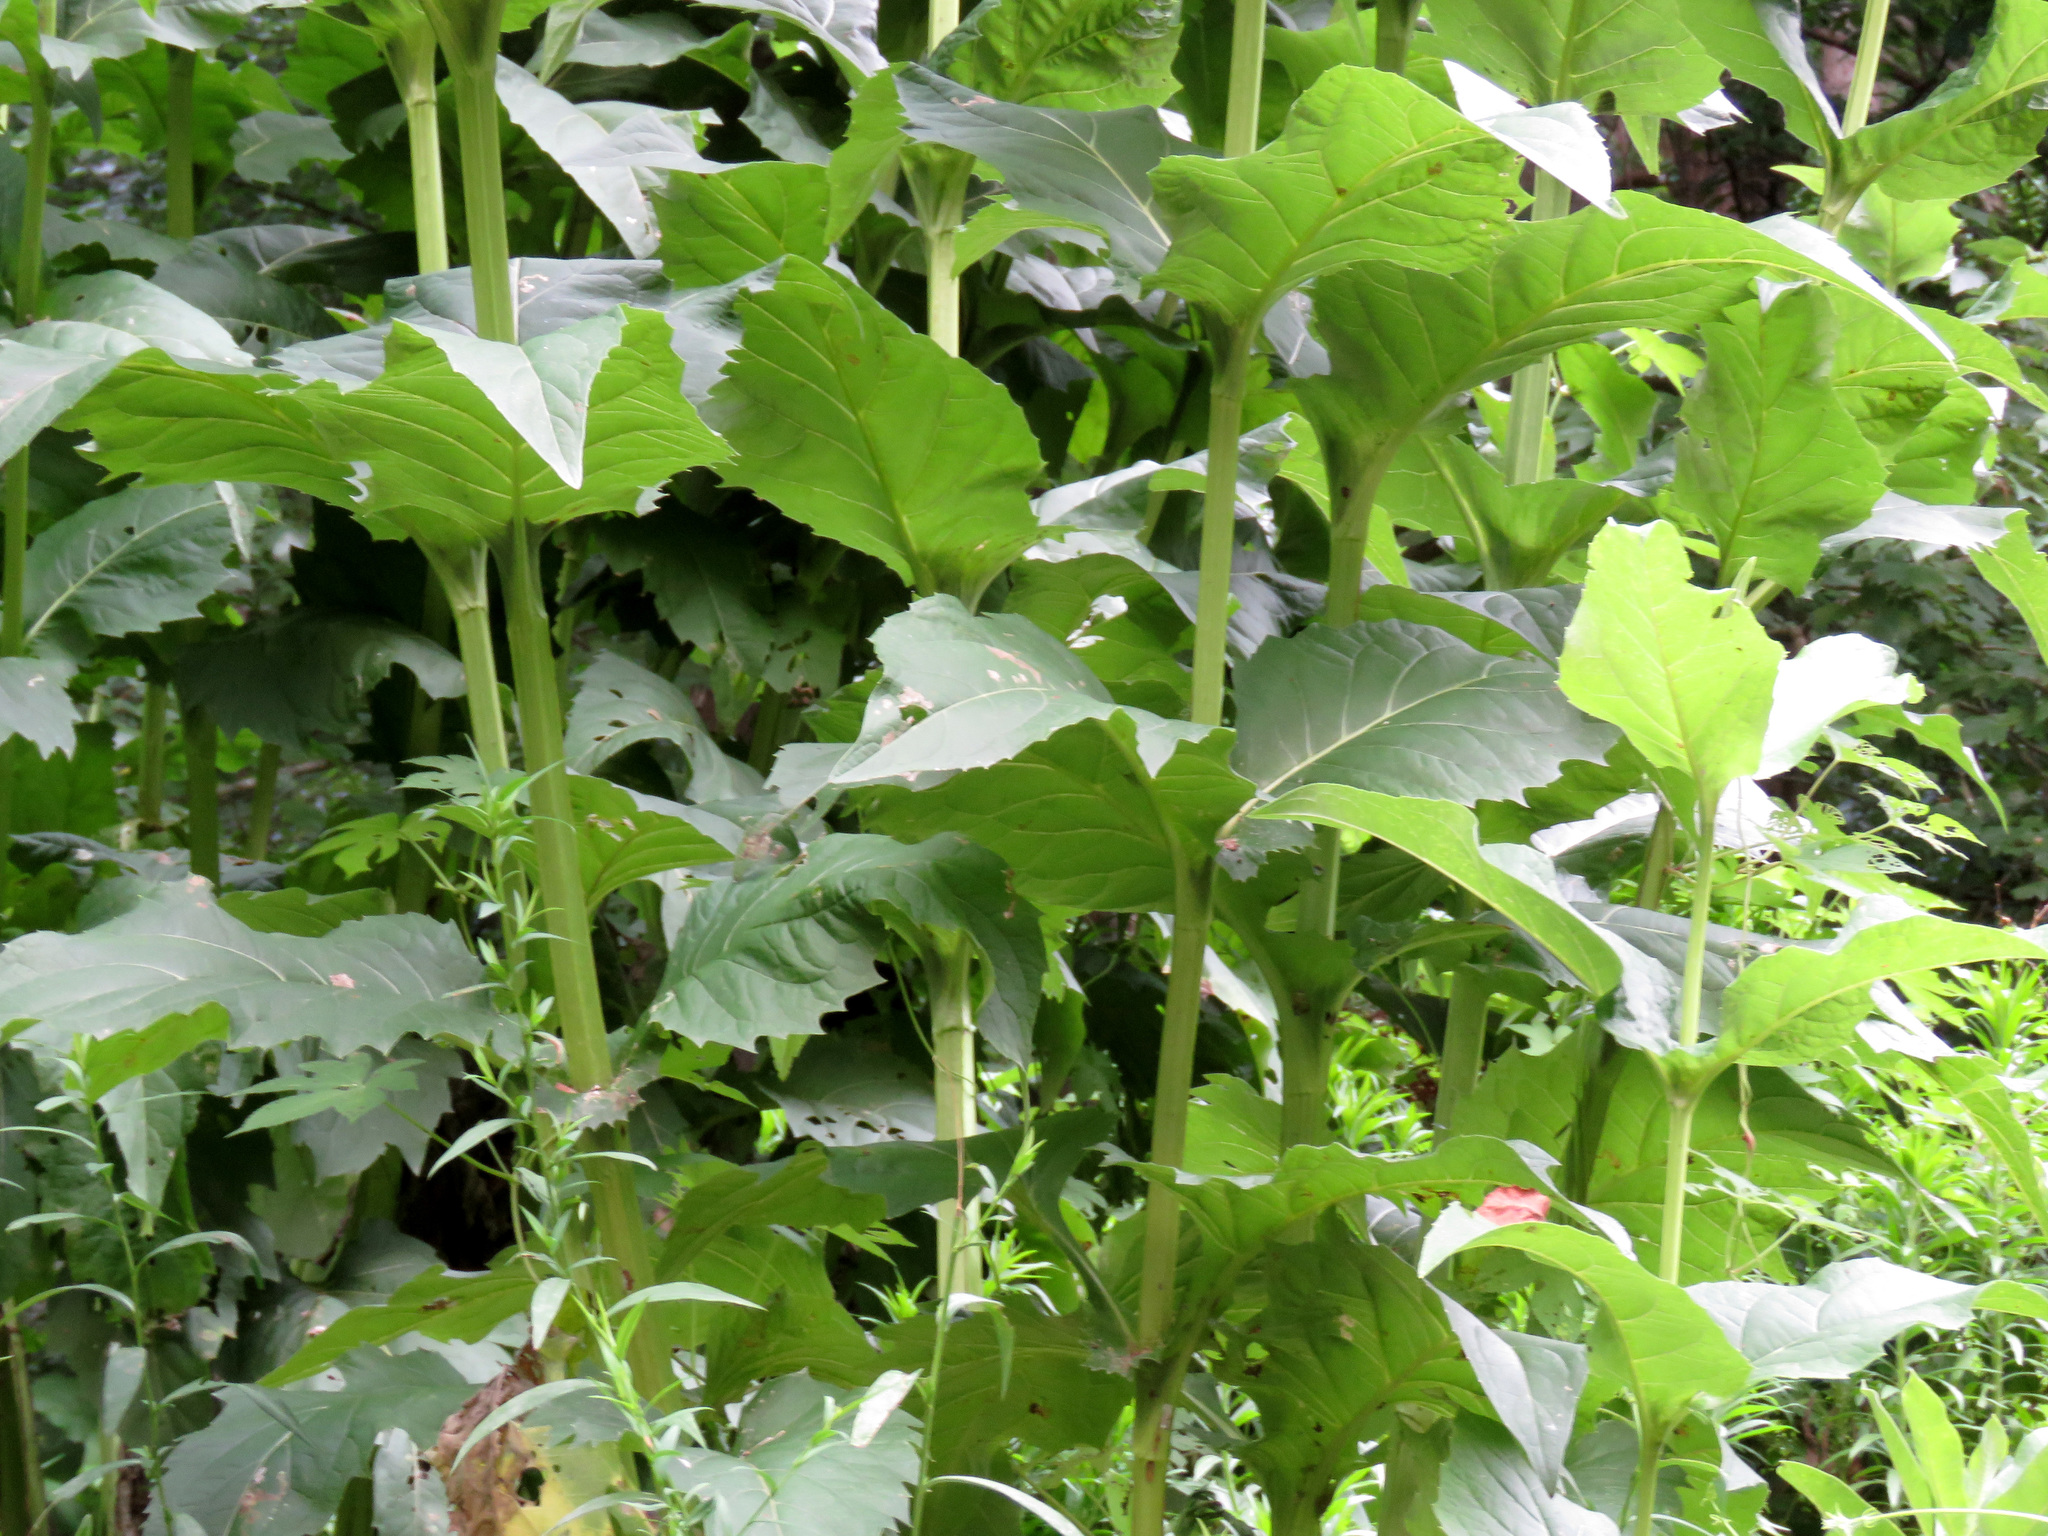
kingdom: Plantae
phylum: Tracheophyta
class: Magnoliopsida
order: Asterales
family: Asteraceae
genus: Silphium
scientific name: Silphium perfoliatum
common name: Cup-plant
